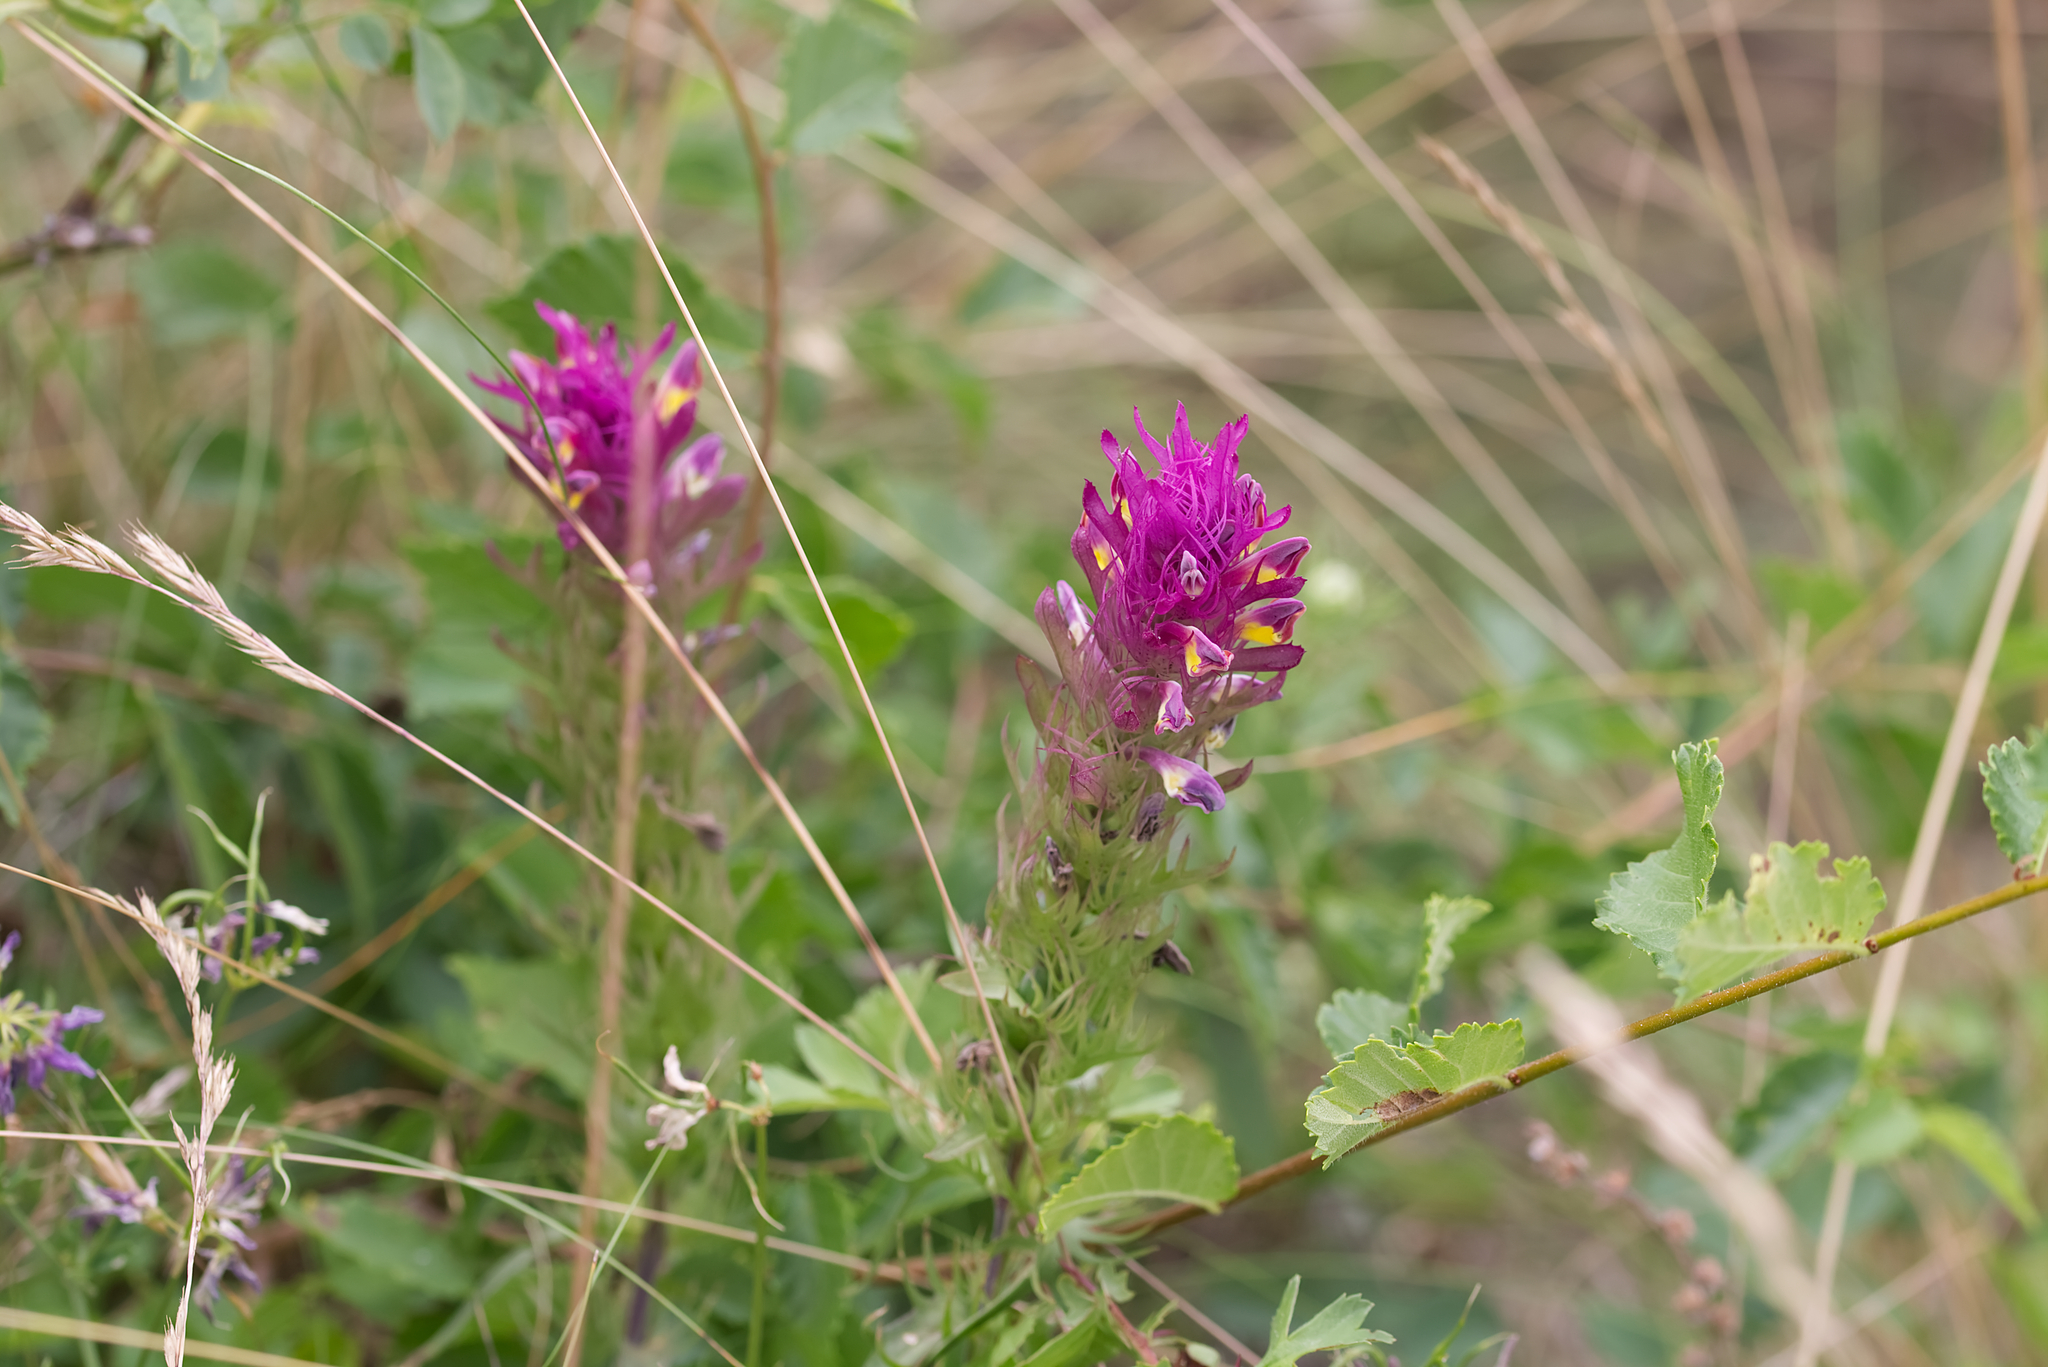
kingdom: Plantae
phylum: Tracheophyta
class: Magnoliopsida
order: Lamiales
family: Orobanchaceae
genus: Melampyrum
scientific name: Melampyrum arvense
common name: Field cow-wheat
